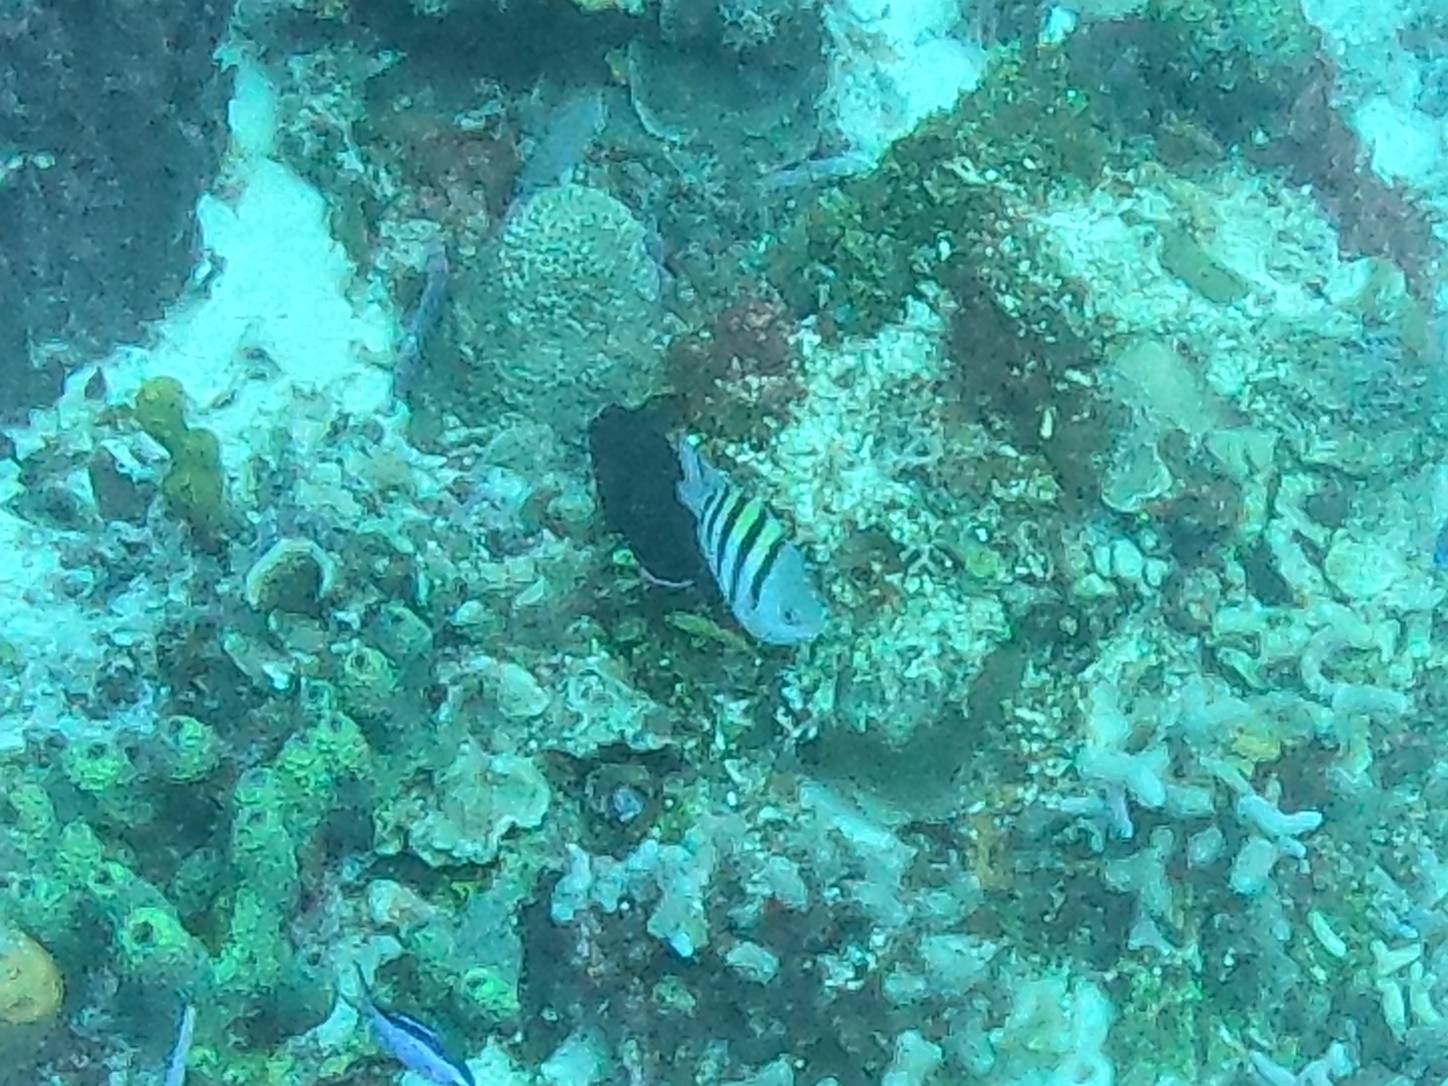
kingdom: Animalia
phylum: Chordata
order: Perciformes
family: Pomacentridae
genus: Abudefduf
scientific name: Abudefduf saxatilis
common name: Sergeant major
